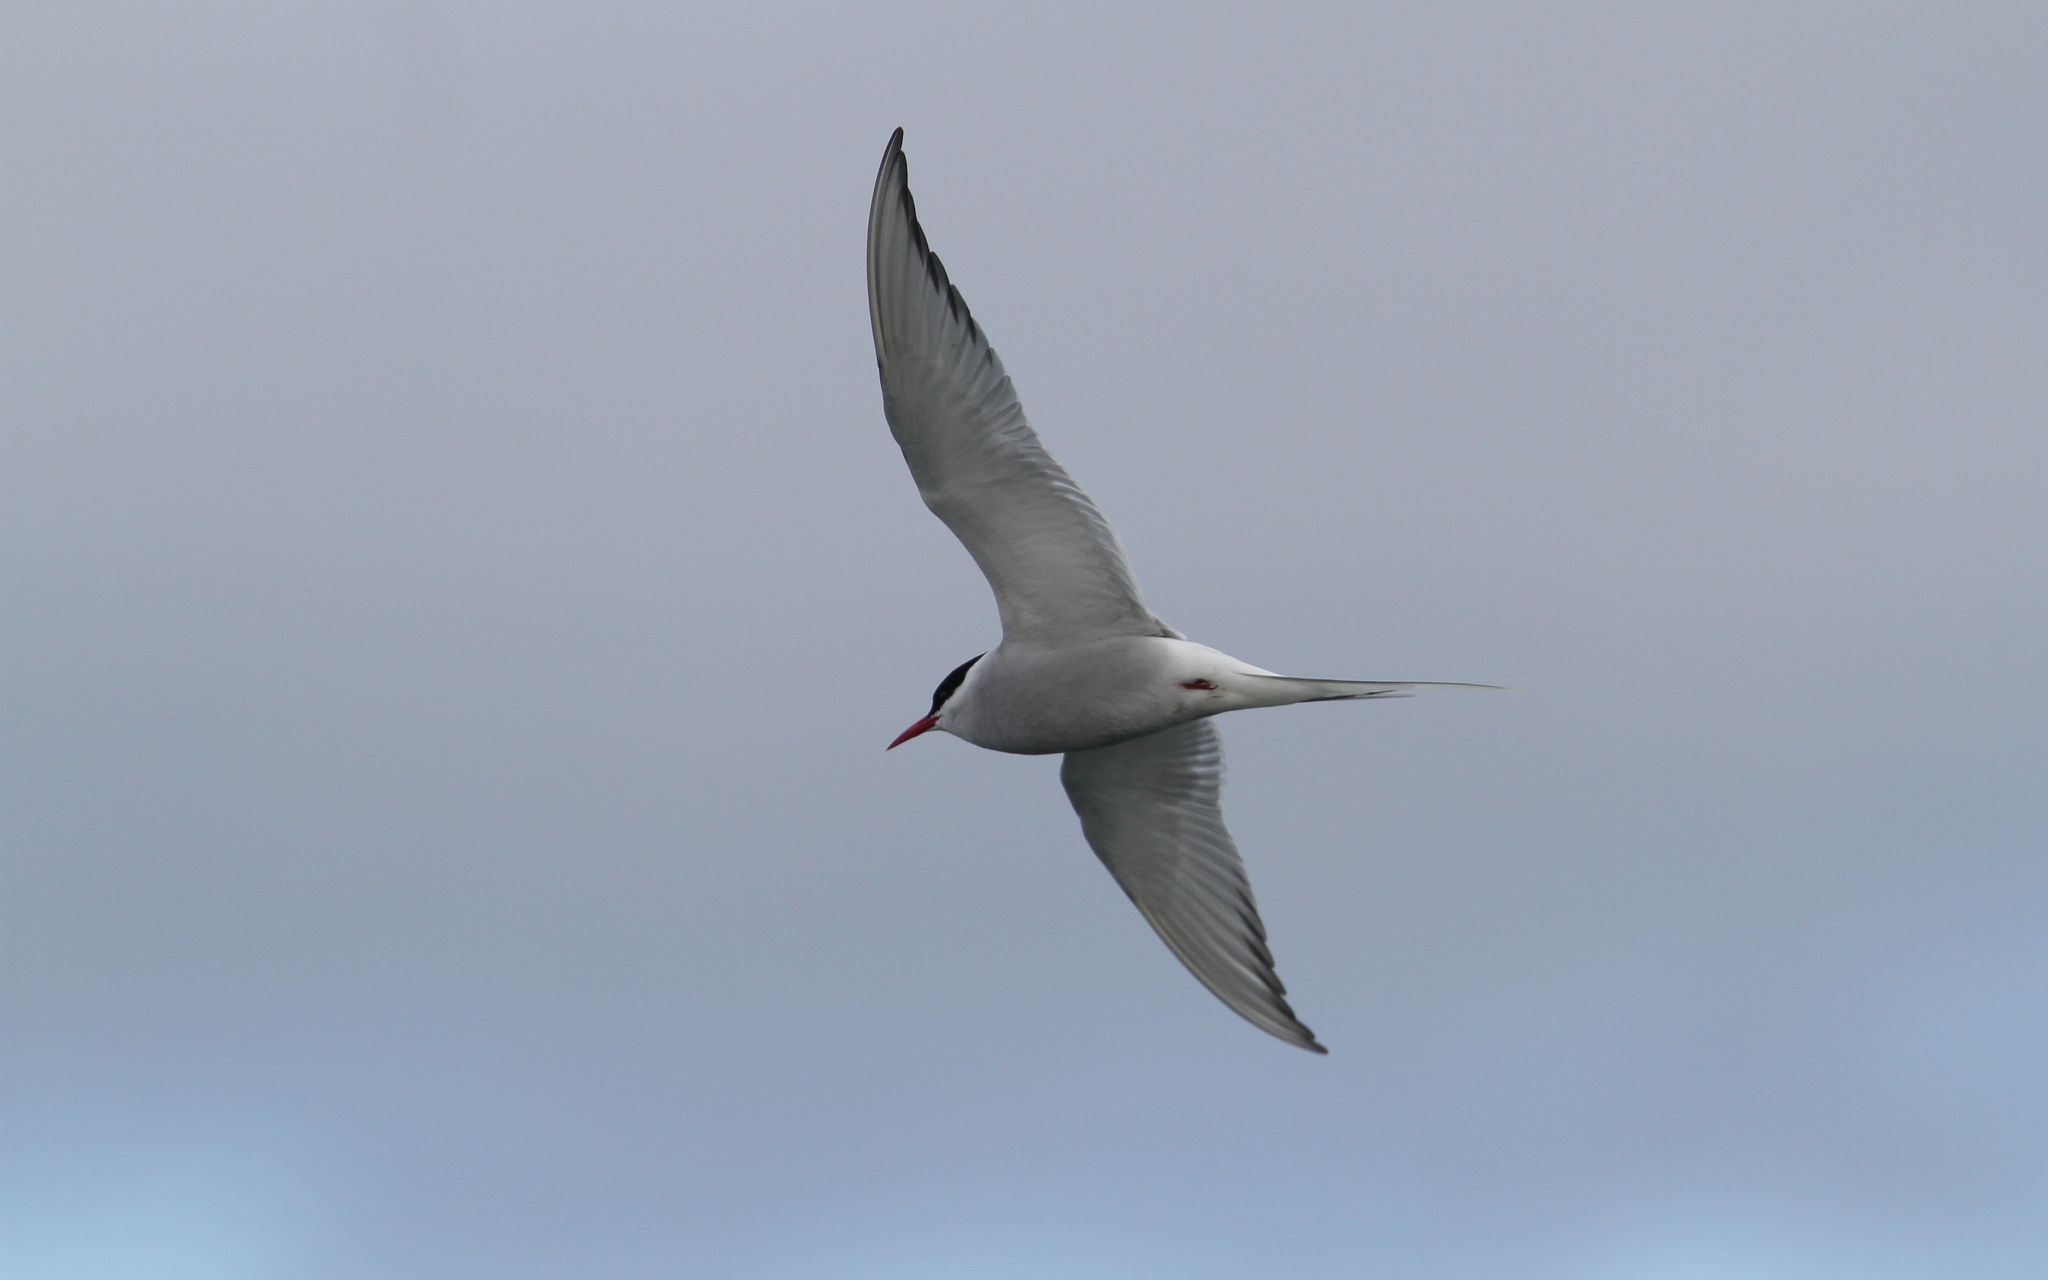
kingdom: Animalia
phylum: Chordata
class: Aves
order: Charadriiformes
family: Laridae
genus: Sterna
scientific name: Sterna paradisaea
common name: Arctic tern
